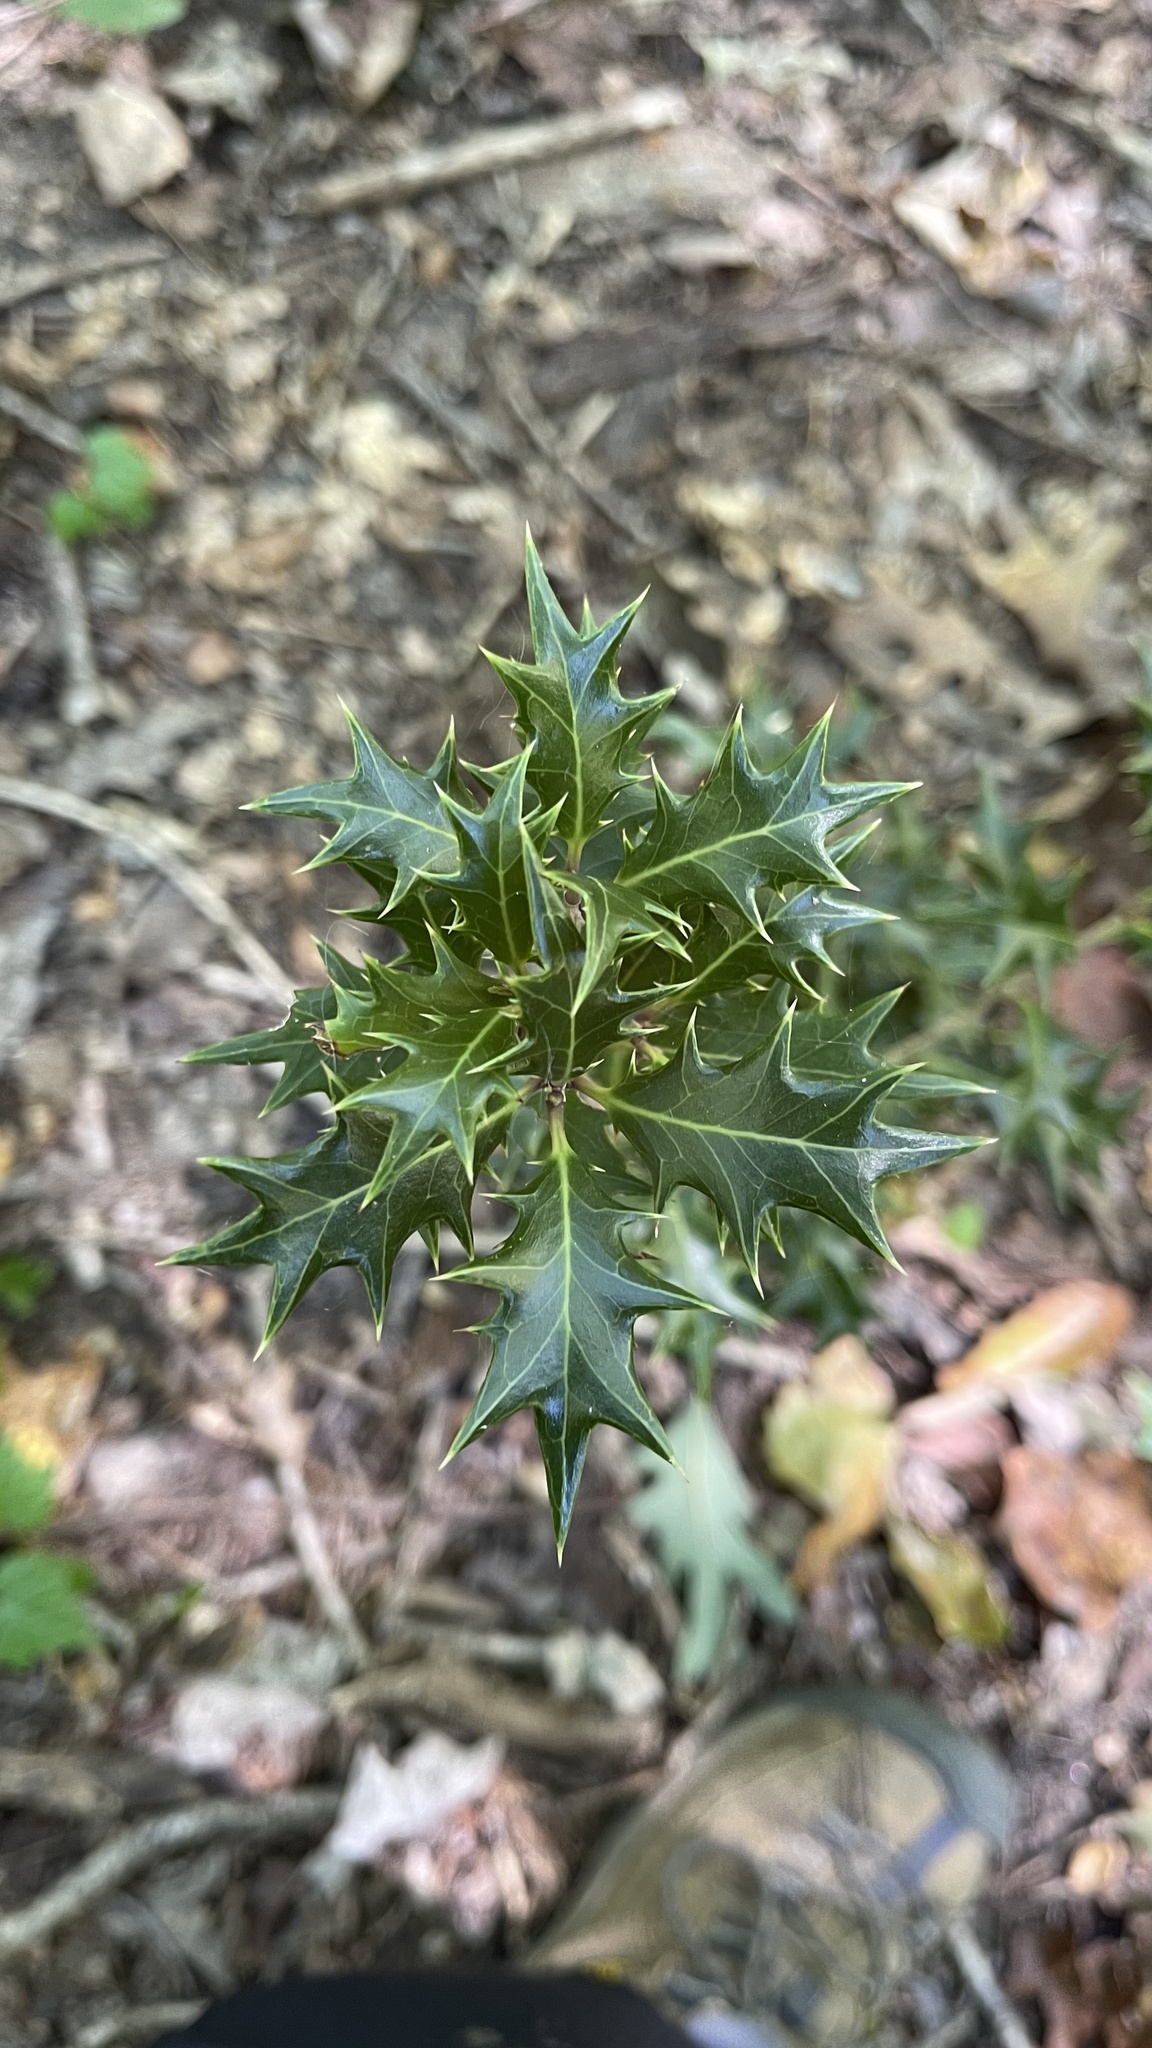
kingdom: Plantae
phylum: Tracheophyta
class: Magnoliopsida
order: Lamiales
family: Oleaceae
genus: Osmanthus
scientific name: Osmanthus heterophyllus
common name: Holly osmanthus
